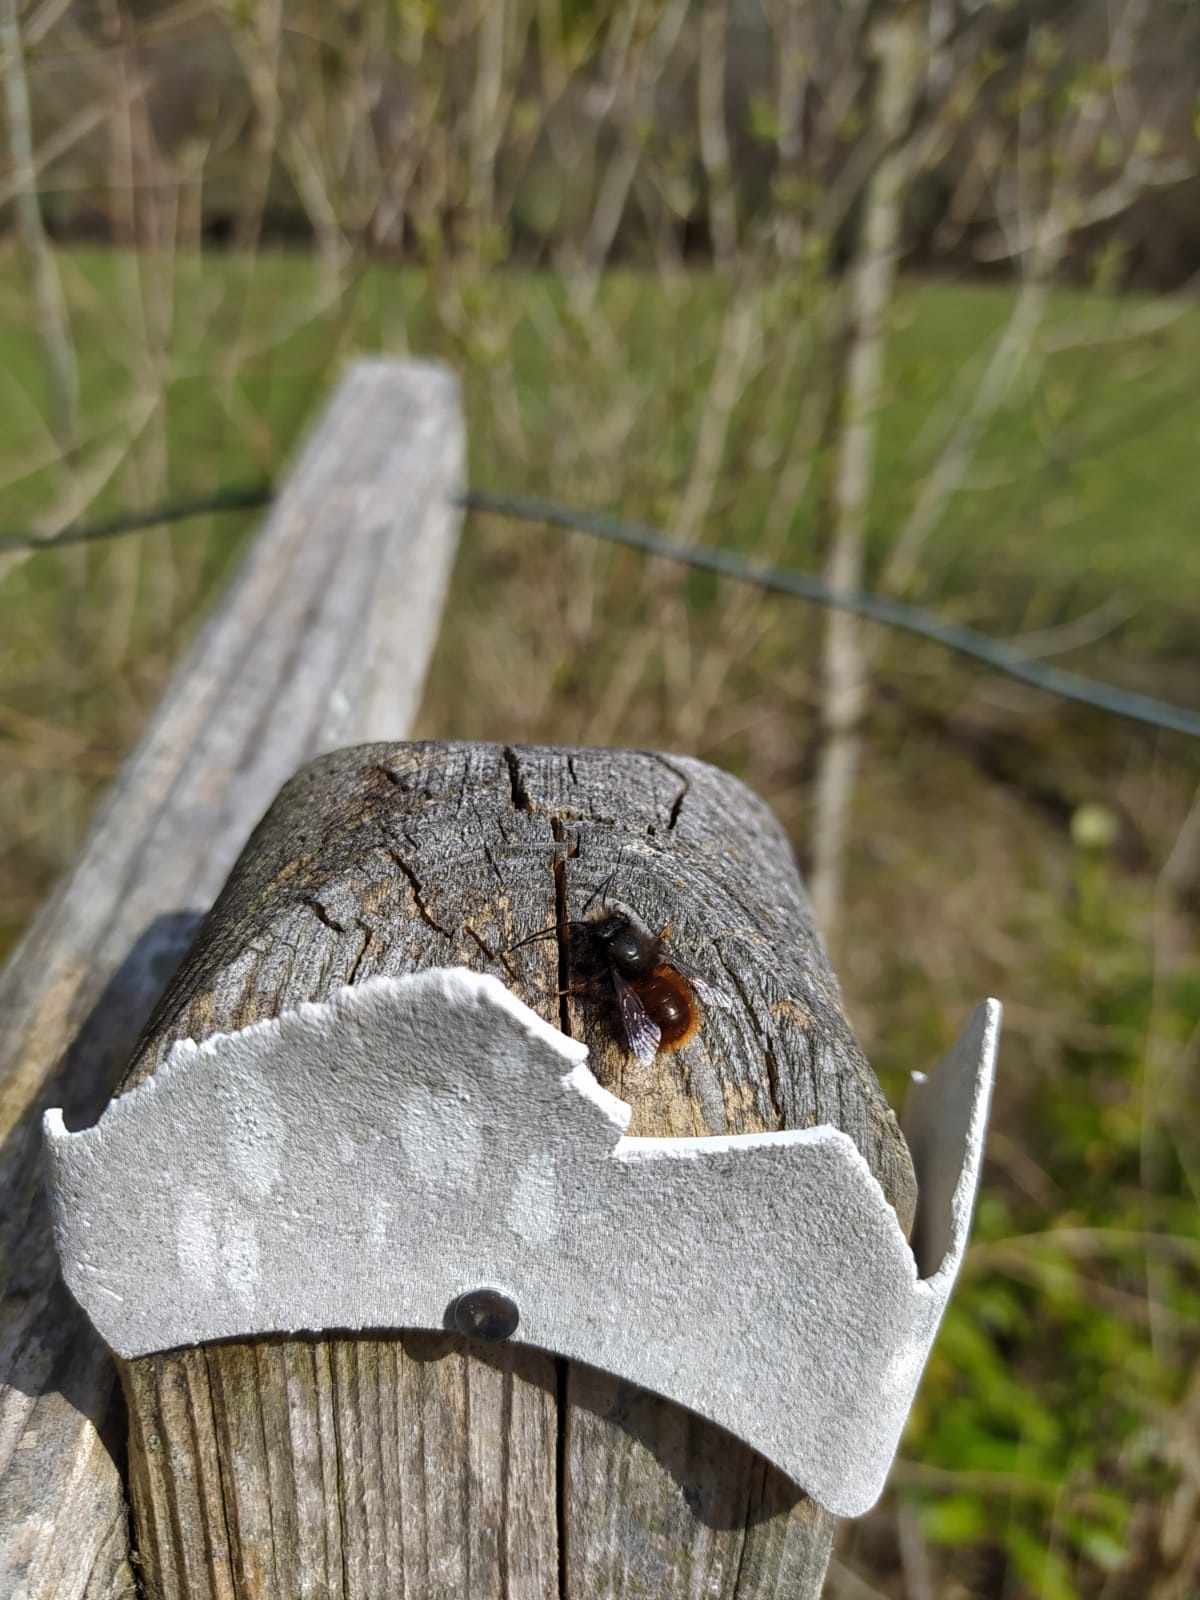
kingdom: Animalia
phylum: Arthropoda
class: Insecta
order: Hymenoptera
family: Megachilidae
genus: Osmia
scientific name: Osmia cornuta
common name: Mason bee
